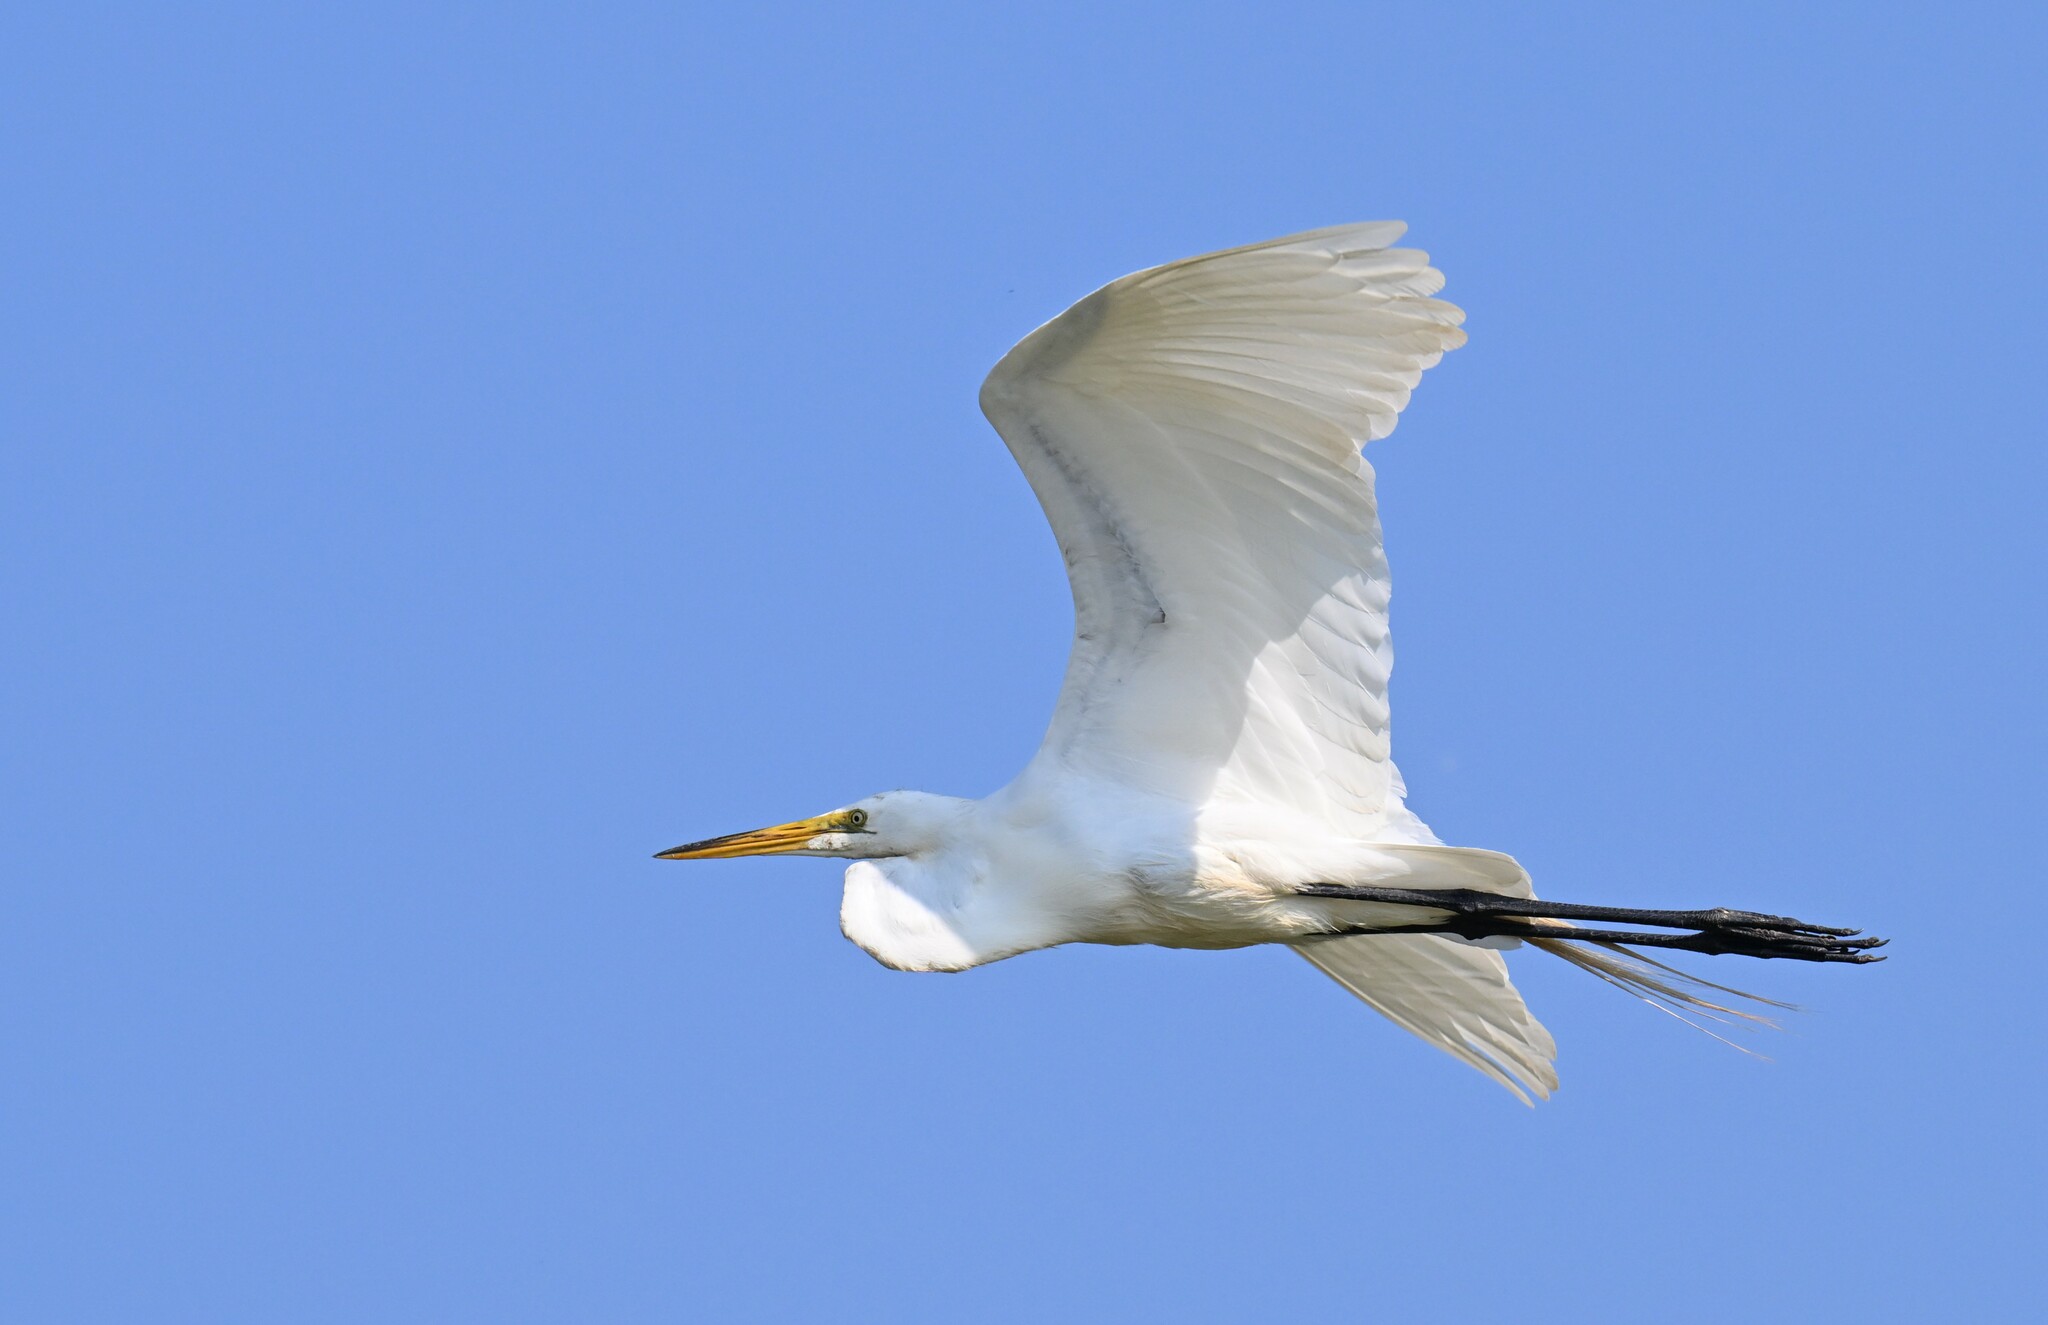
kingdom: Animalia
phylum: Chordata
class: Aves
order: Pelecaniformes
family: Ardeidae
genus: Ardea
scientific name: Ardea alba
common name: Great egret
